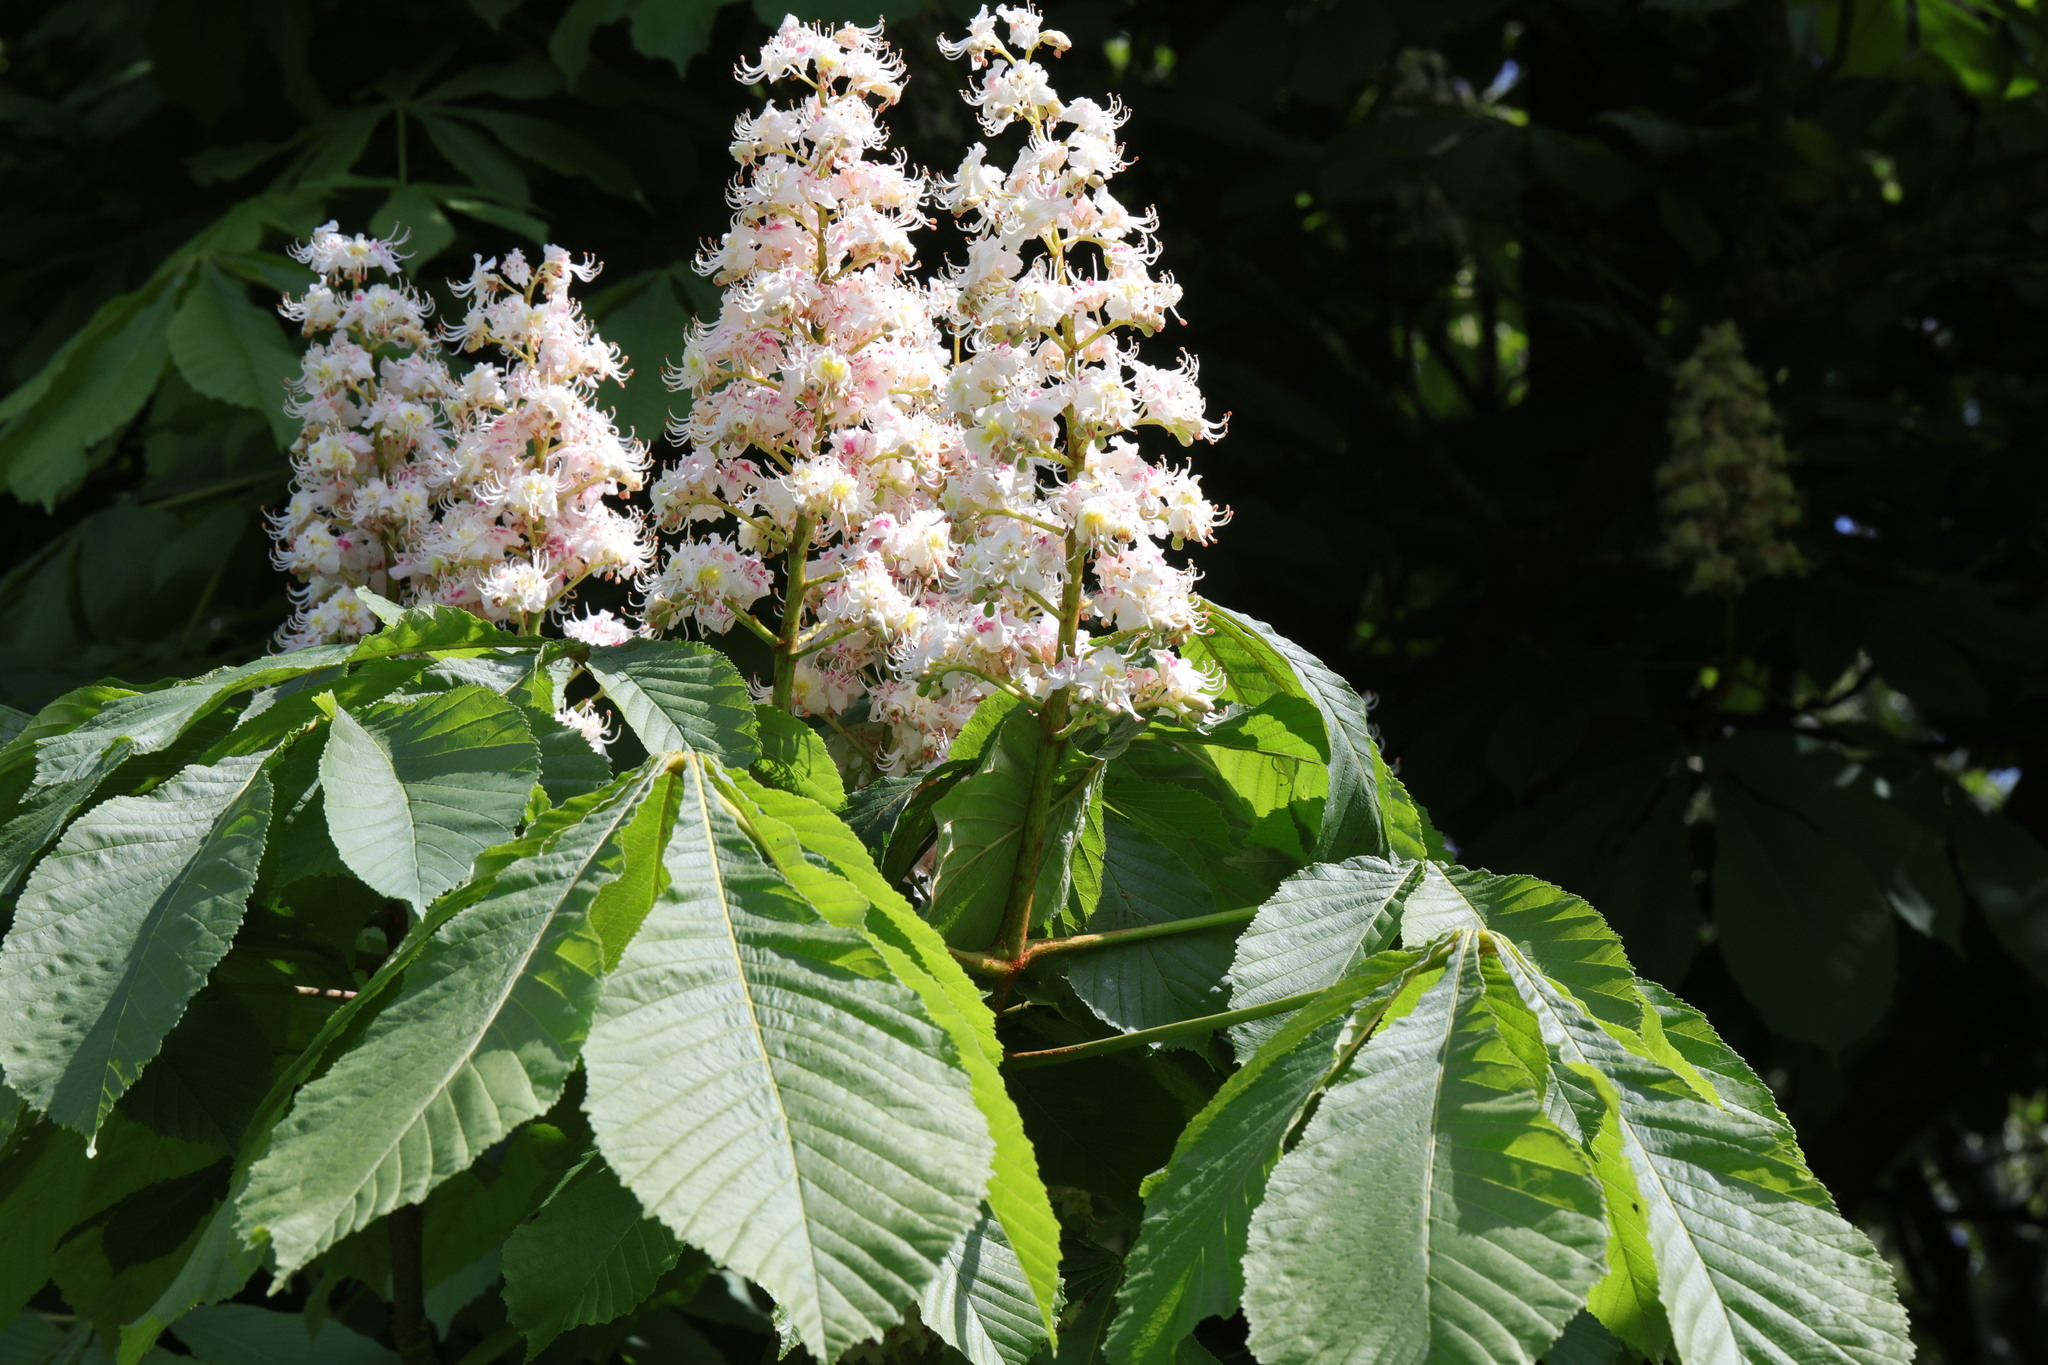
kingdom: Plantae
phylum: Tracheophyta
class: Magnoliopsida
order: Sapindales
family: Sapindaceae
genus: Aesculus
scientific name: Aesculus hippocastanum
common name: Horse-chestnut
